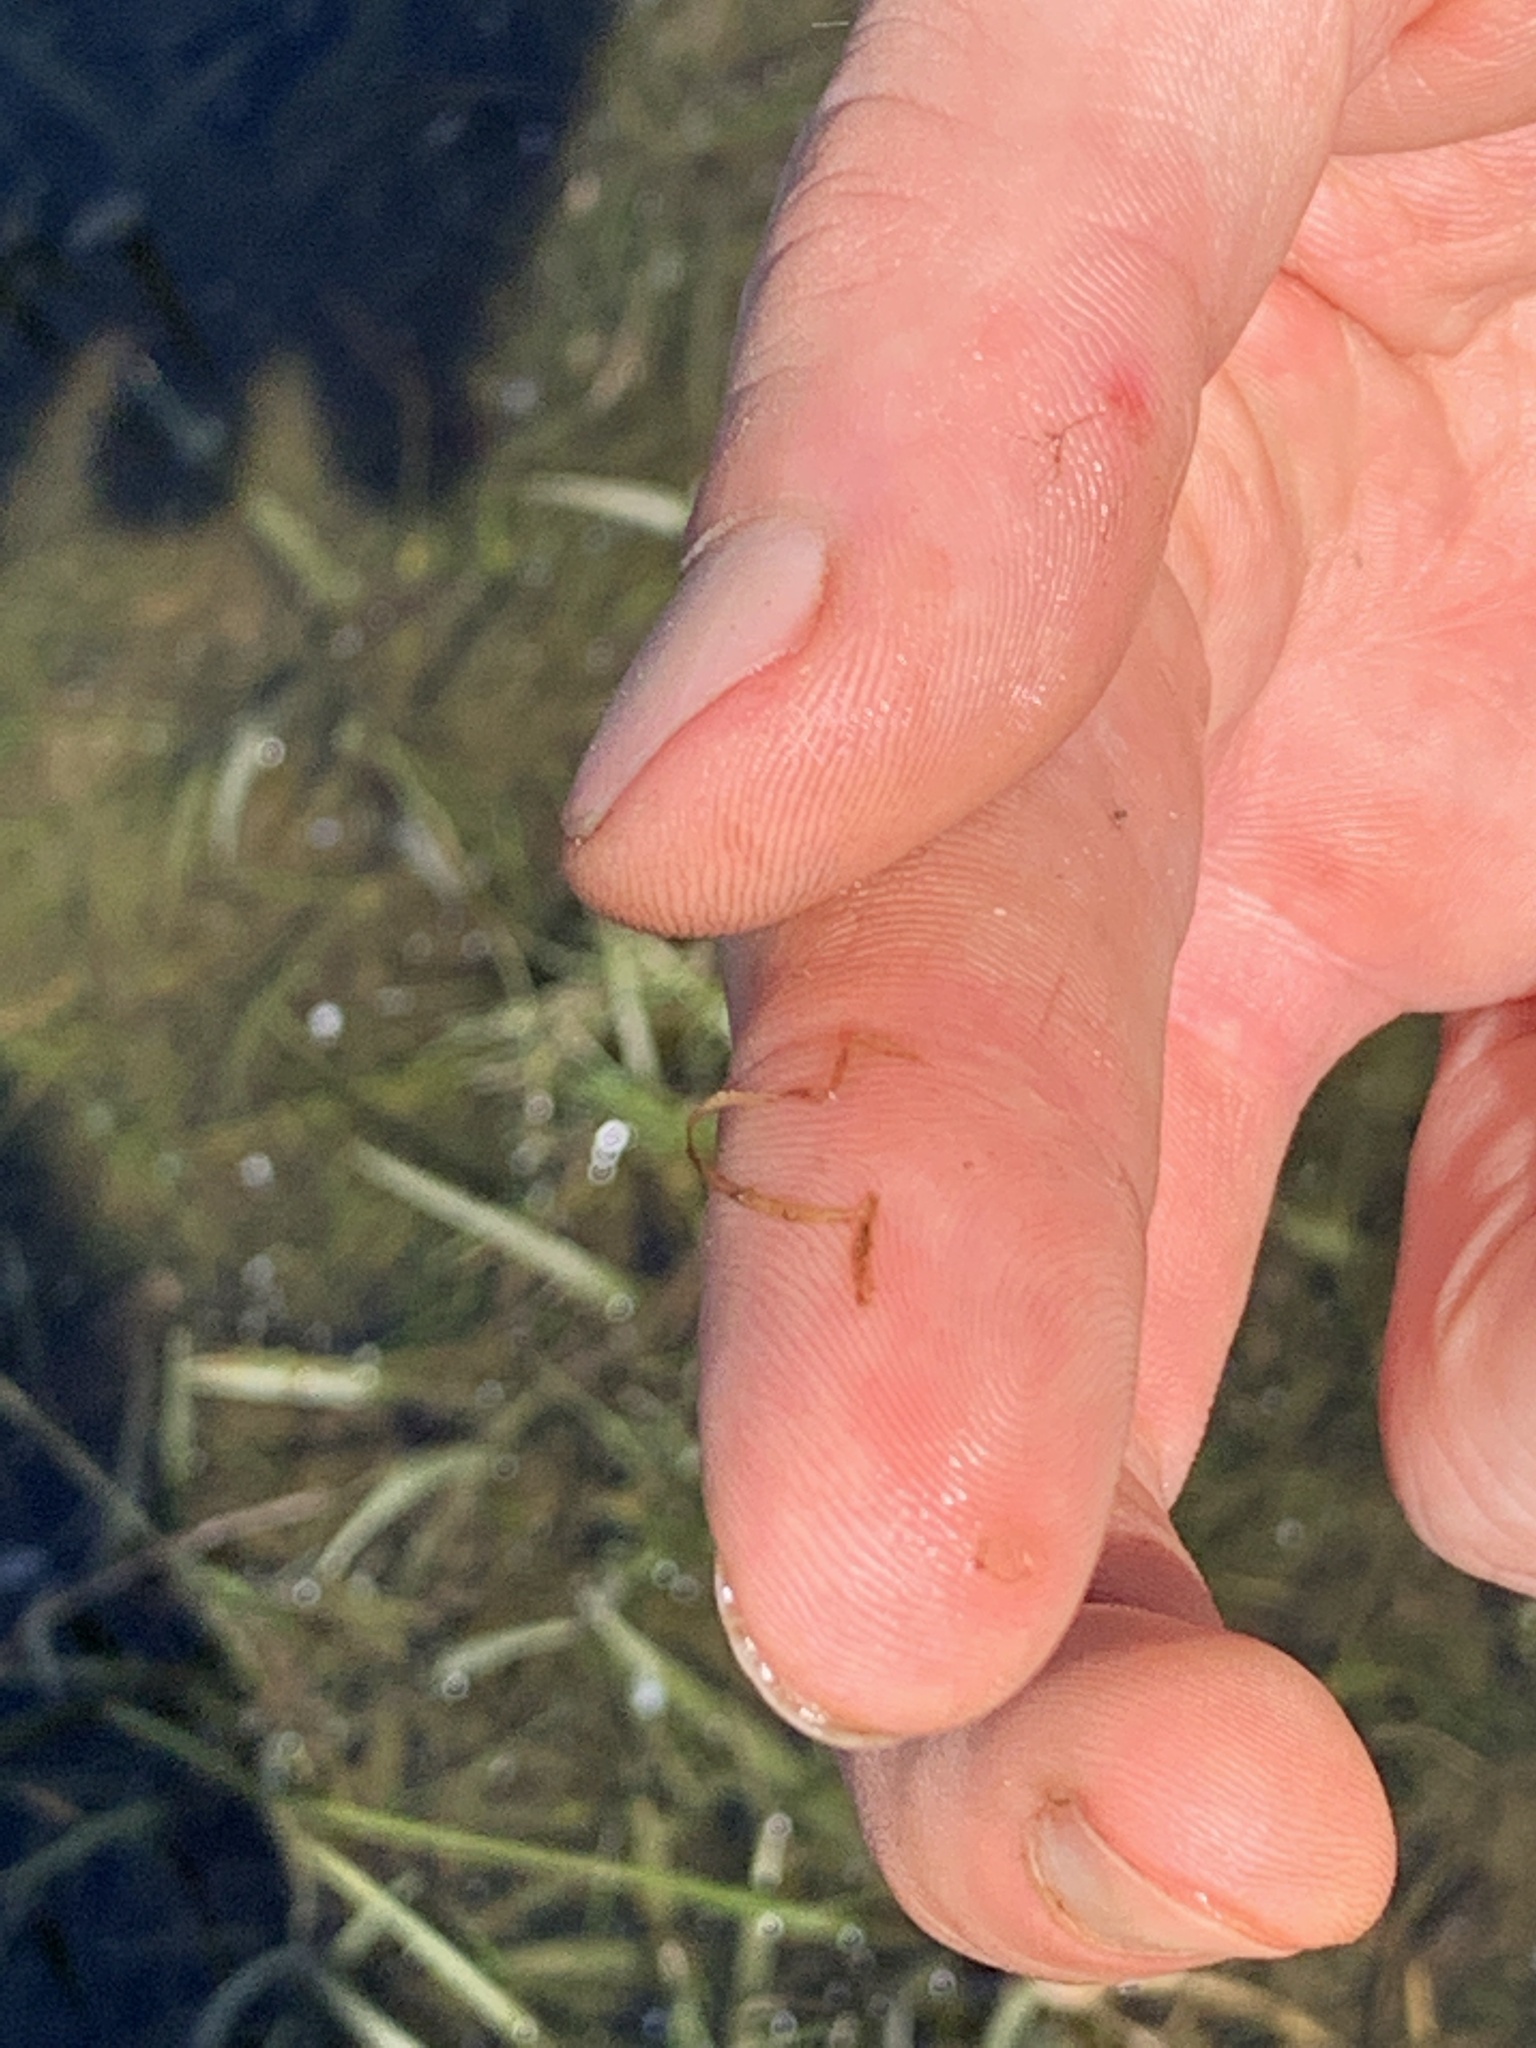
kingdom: Plantae
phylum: Tracheophyta
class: Liliopsida
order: Alismatales
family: Potamogetonaceae
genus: Potamogeton
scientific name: Potamogeton bicupulatus
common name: Snail-seed pondweed
